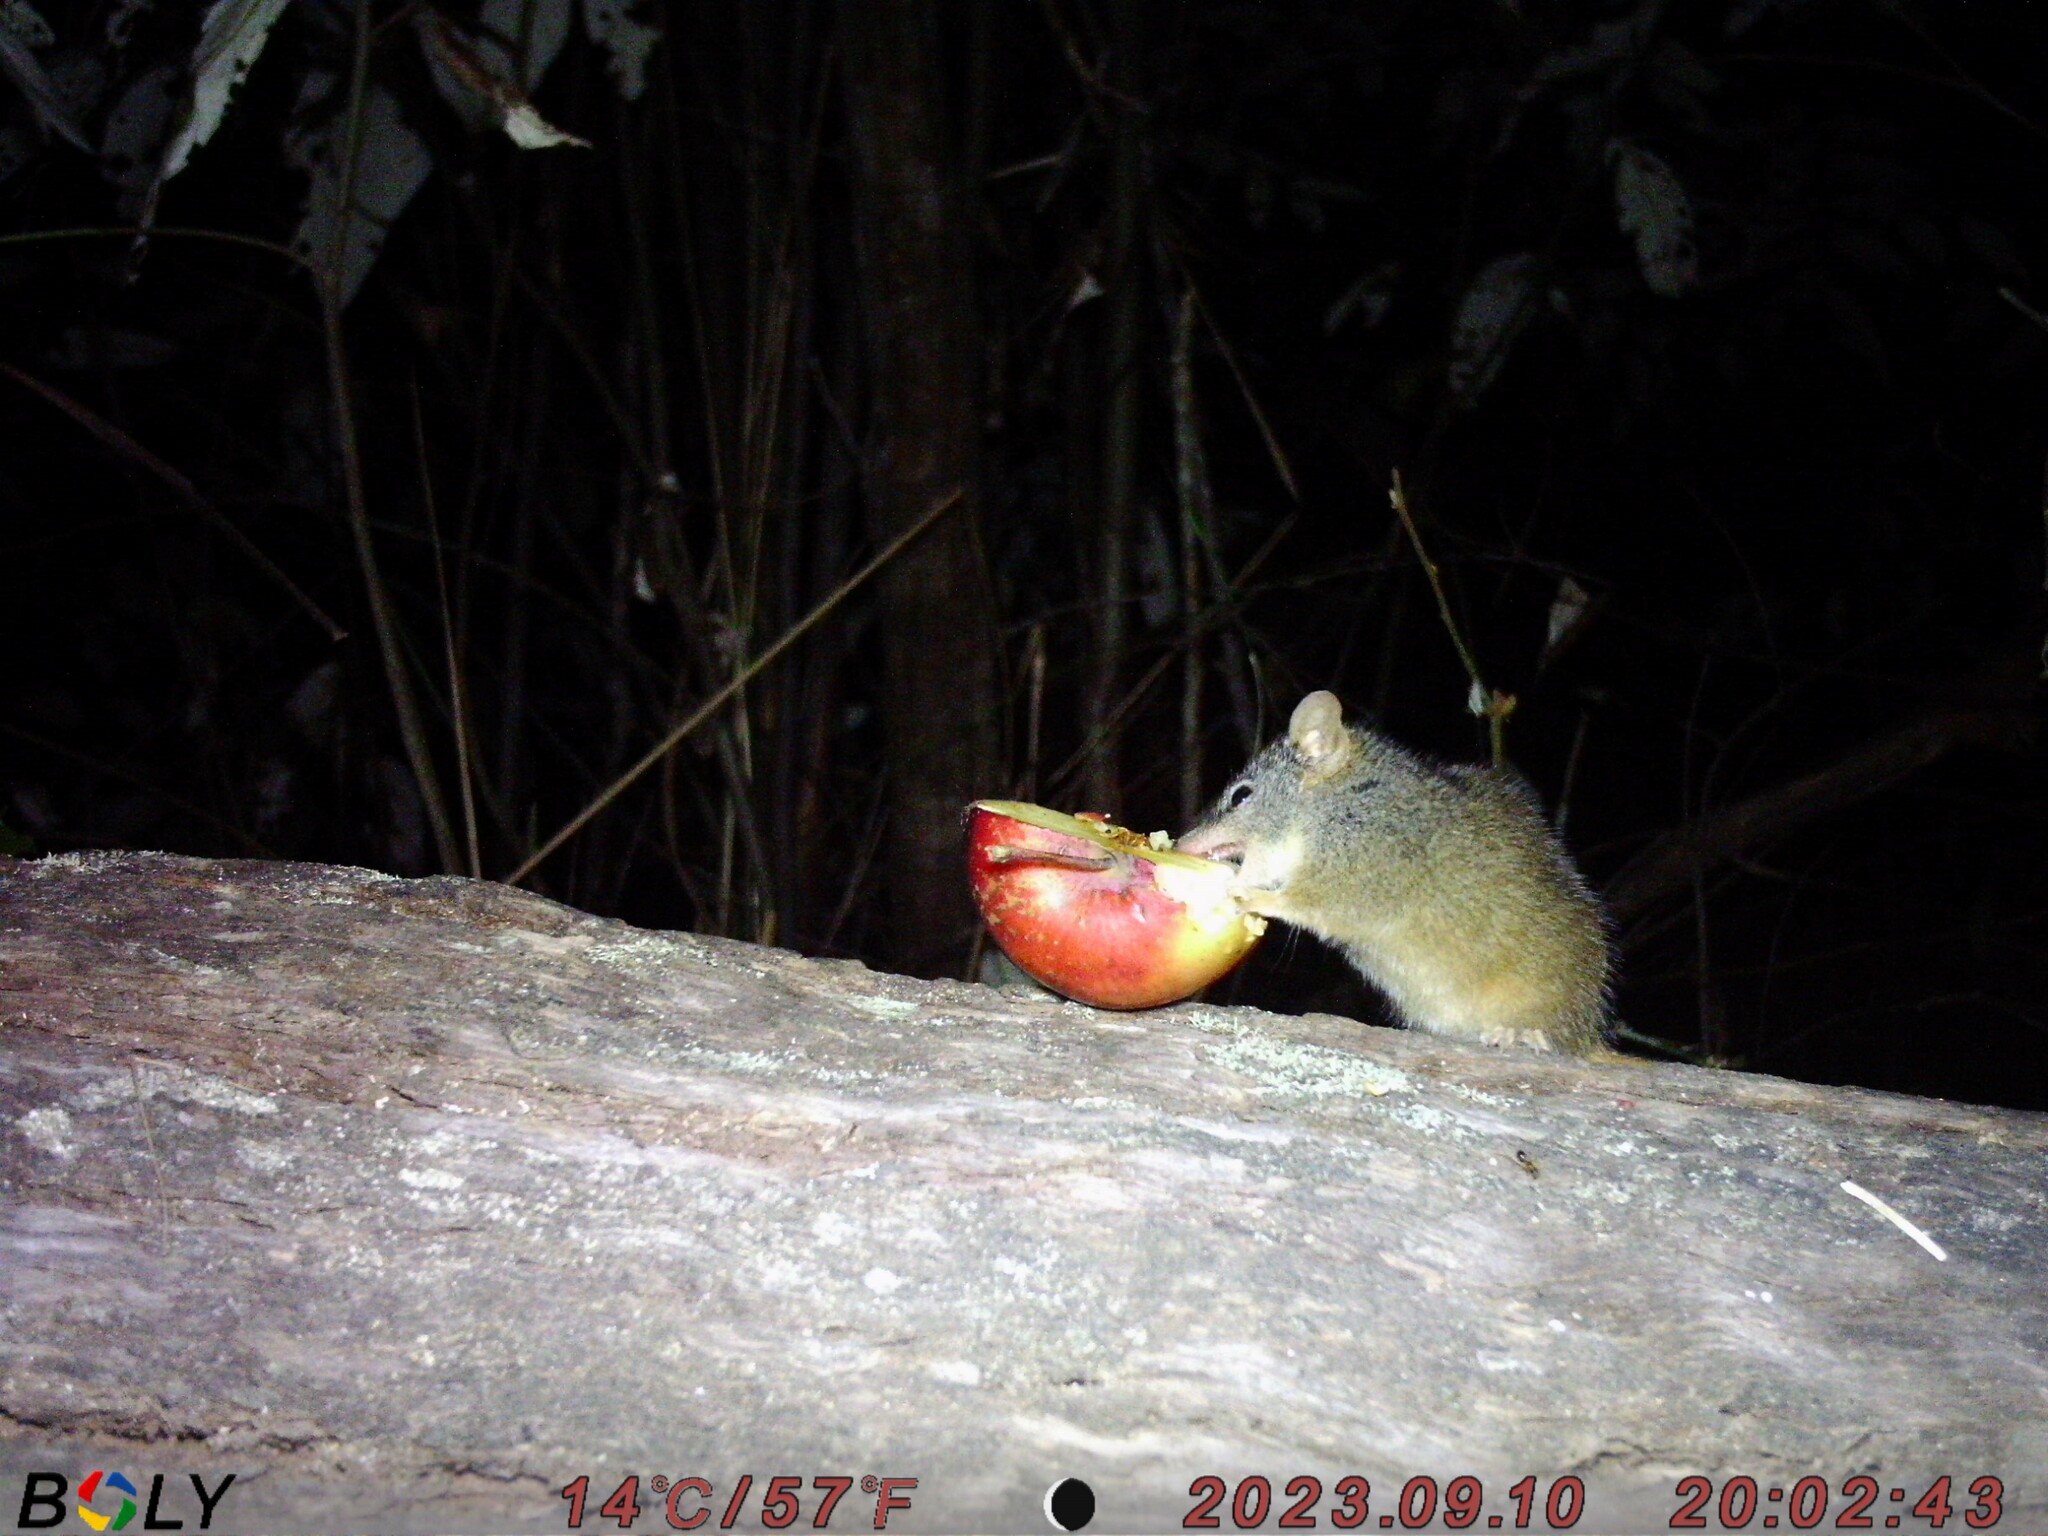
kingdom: Animalia
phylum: Chordata
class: Mammalia
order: Dasyuromorphia
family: Dasyuridae
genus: Antechinus
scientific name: Antechinus flavipes
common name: Yellow-footed antechinus
